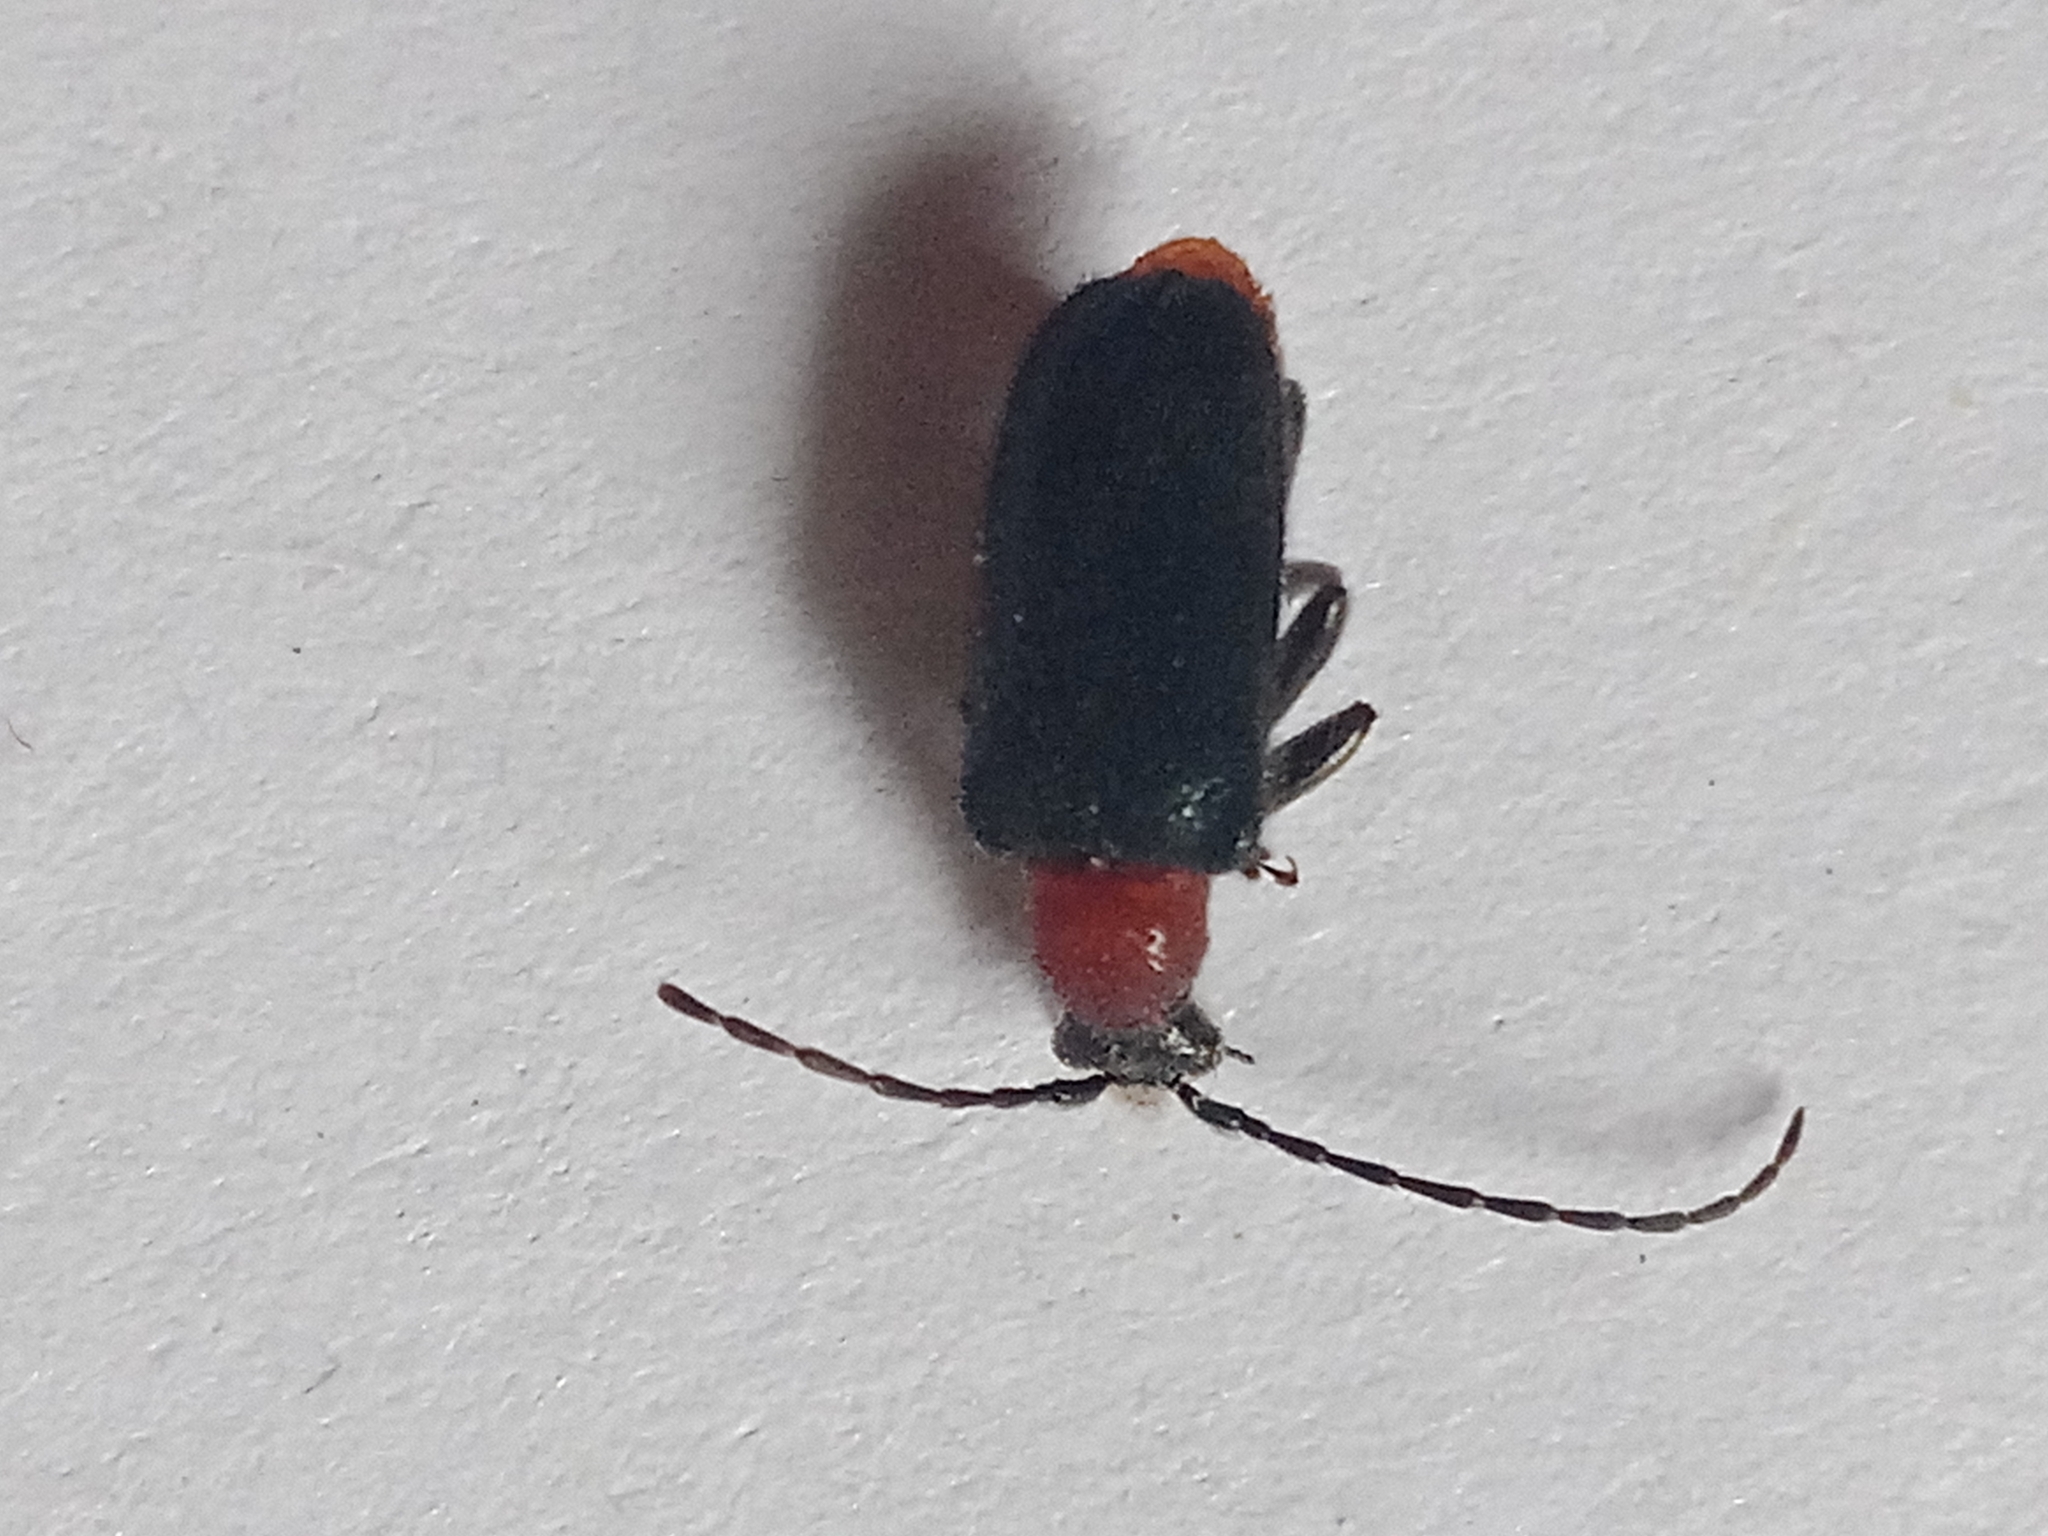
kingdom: Animalia
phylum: Arthropoda
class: Insecta
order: Coleoptera
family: Cerambycidae
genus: Dinoptera
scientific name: Dinoptera collaris
